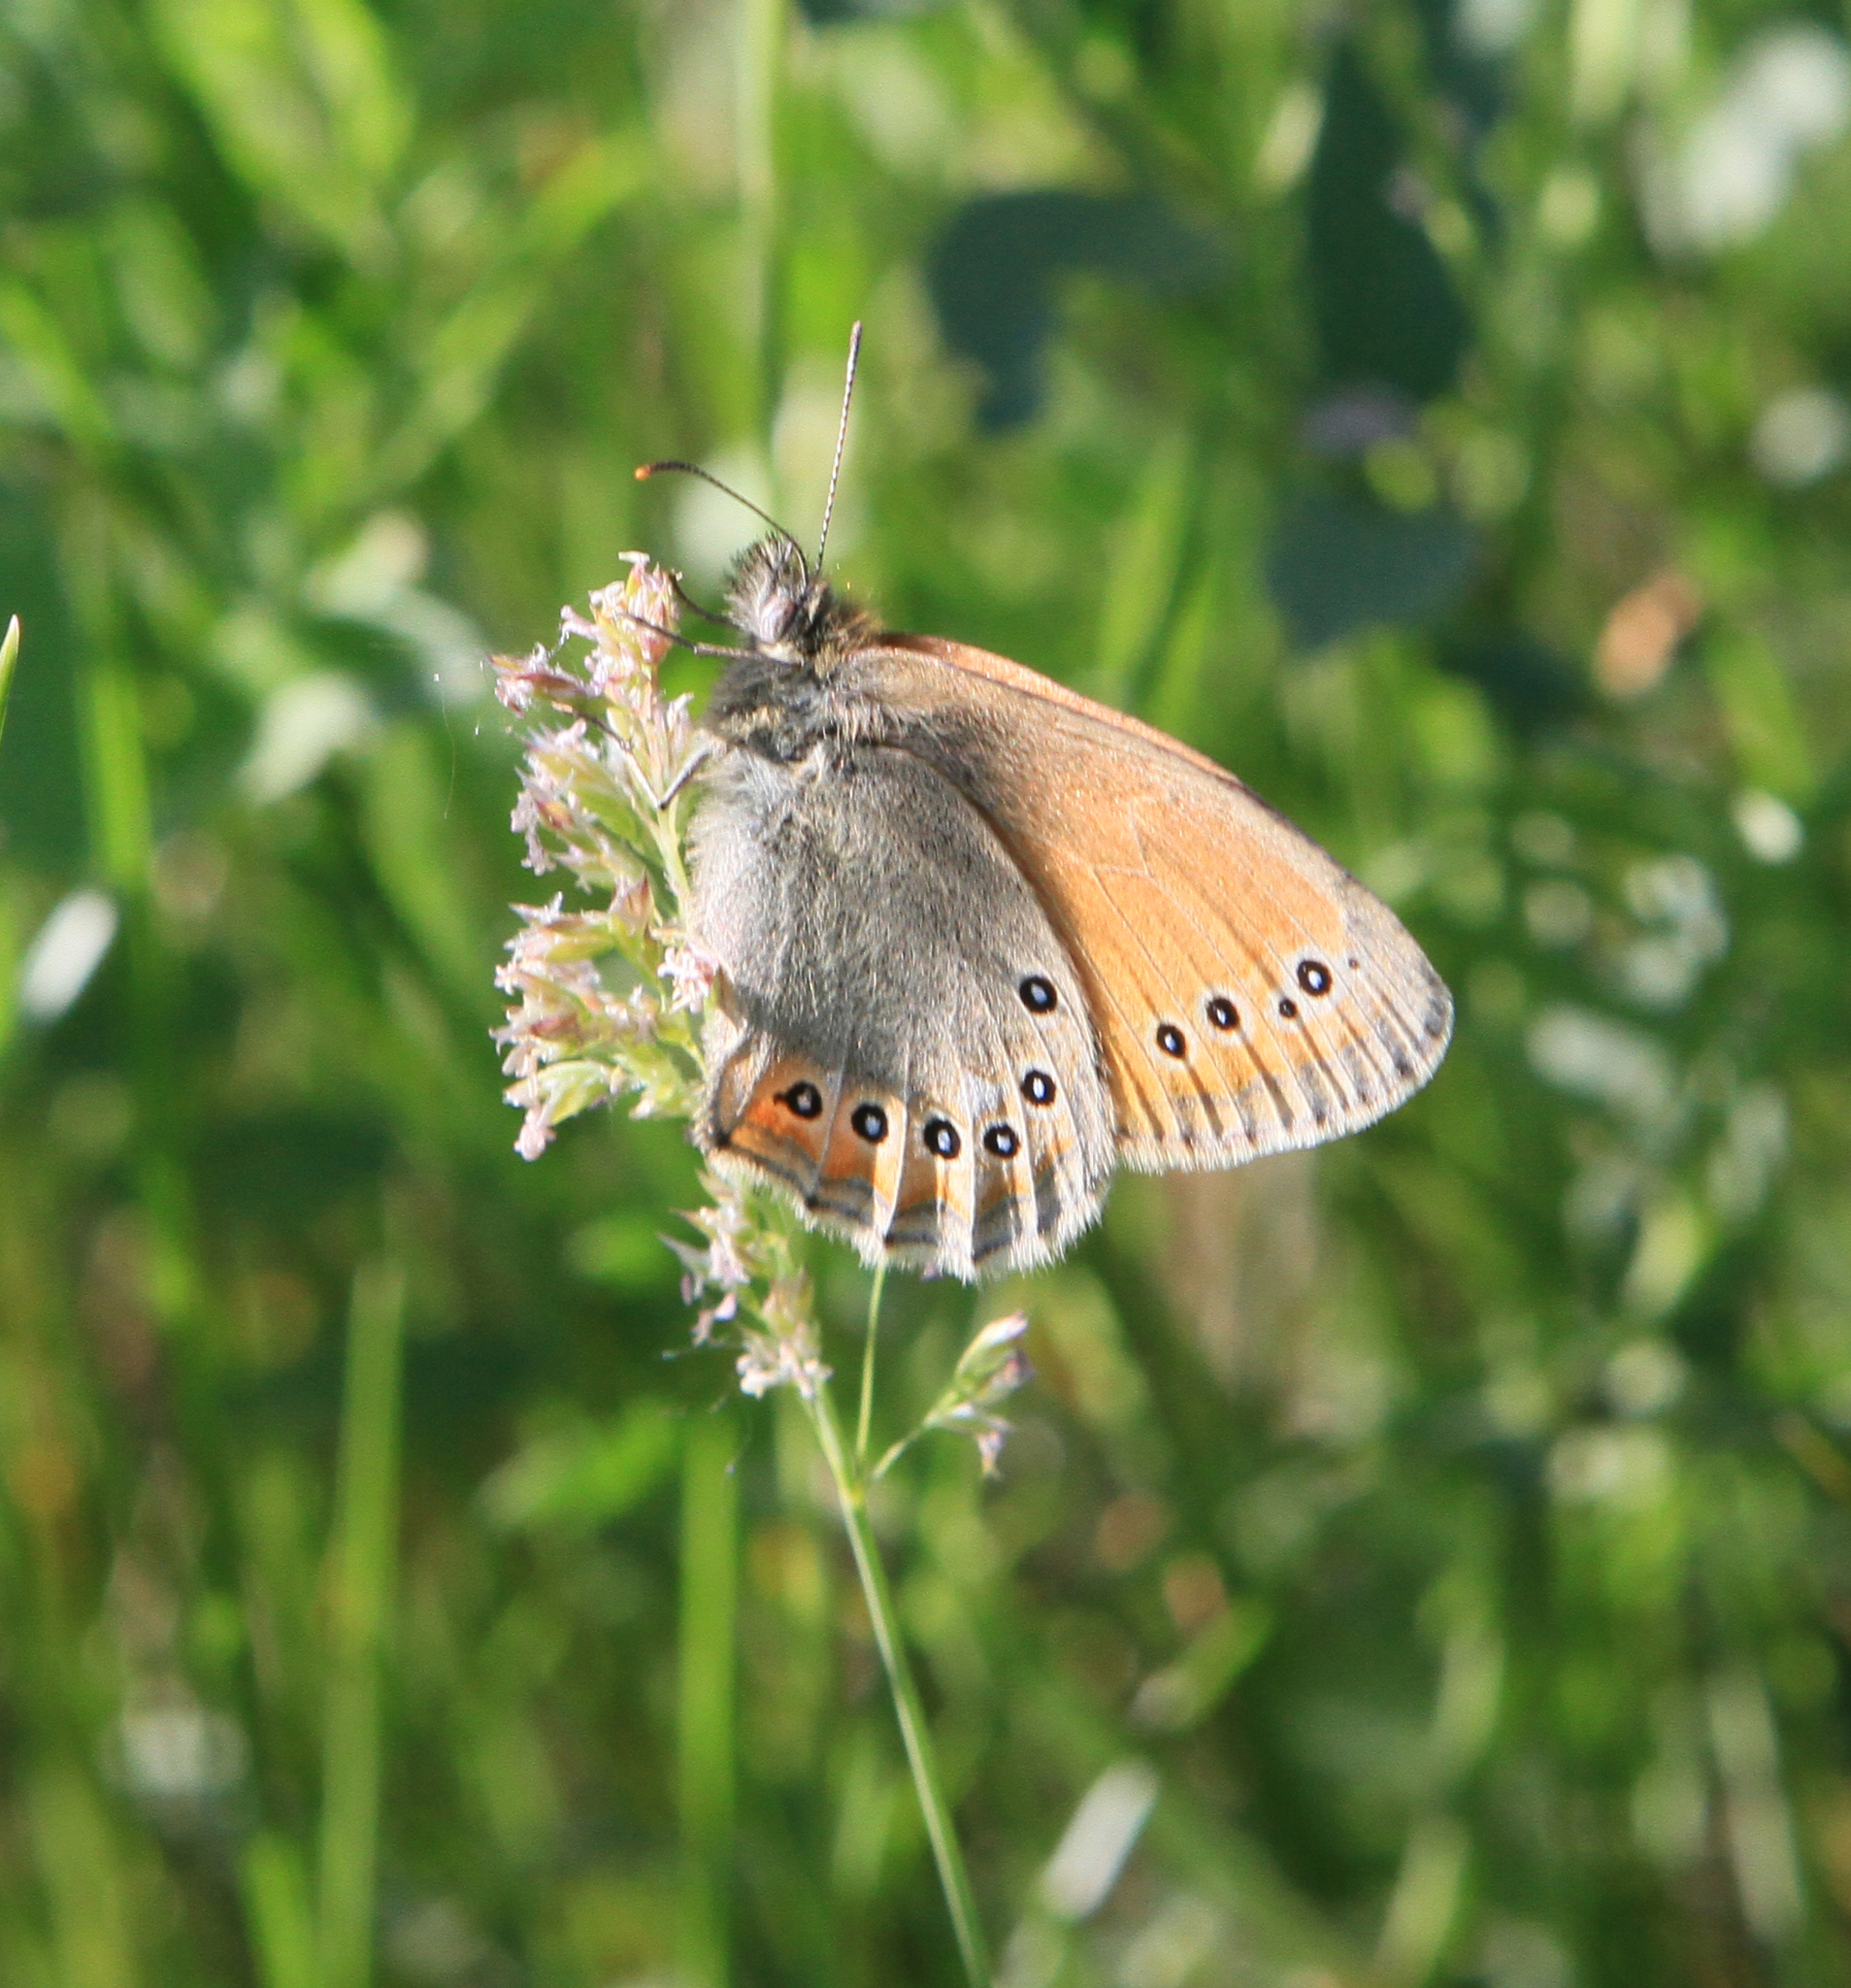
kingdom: Animalia
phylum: Arthropoda
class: Insecta
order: Lepidoptera
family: Nymphalidae
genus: Coenonympha
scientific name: Coenonympha amaryllis
